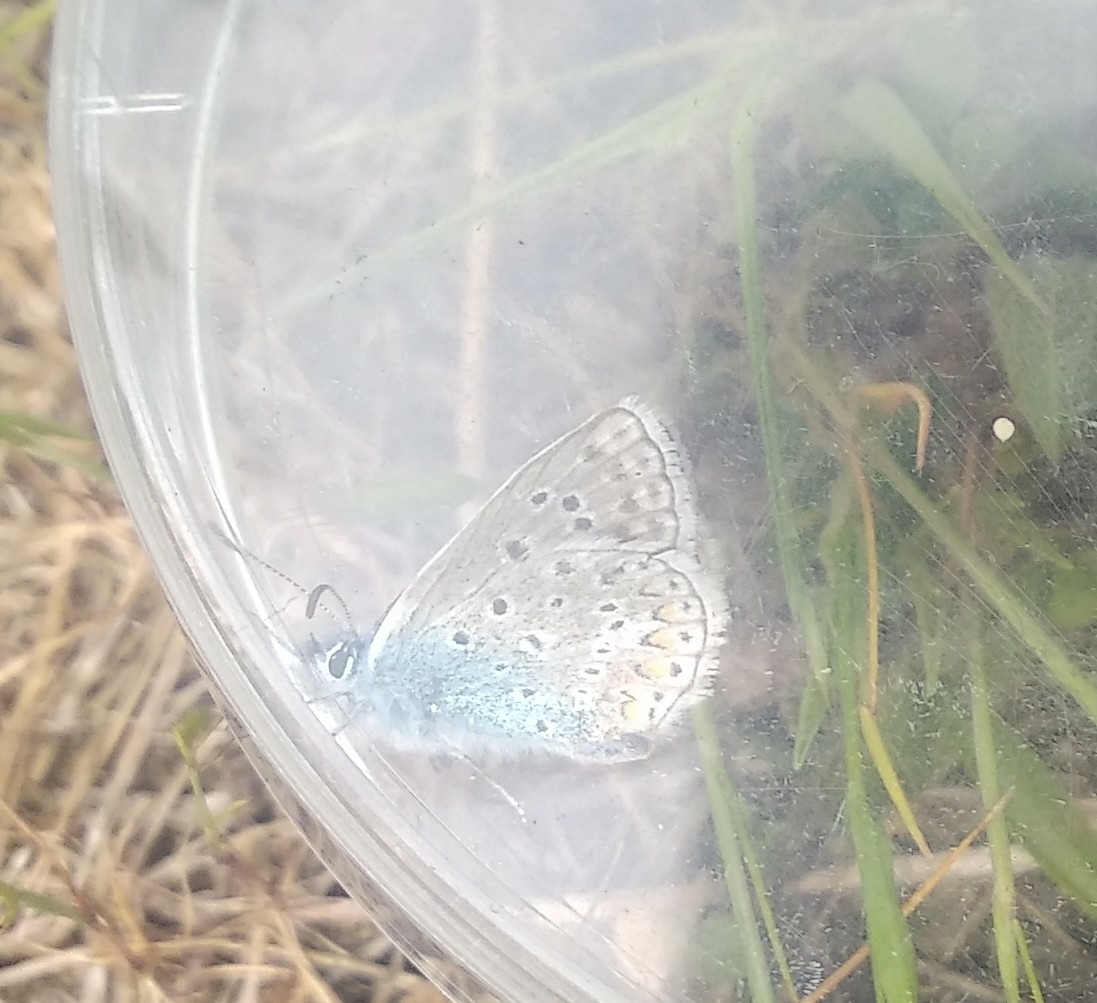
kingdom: Animalia
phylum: Arthropoda
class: Insecta
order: Lepidoptera
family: Lycaenidae
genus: Polyommatus
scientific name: Polyommatus icarus
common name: Common blue
